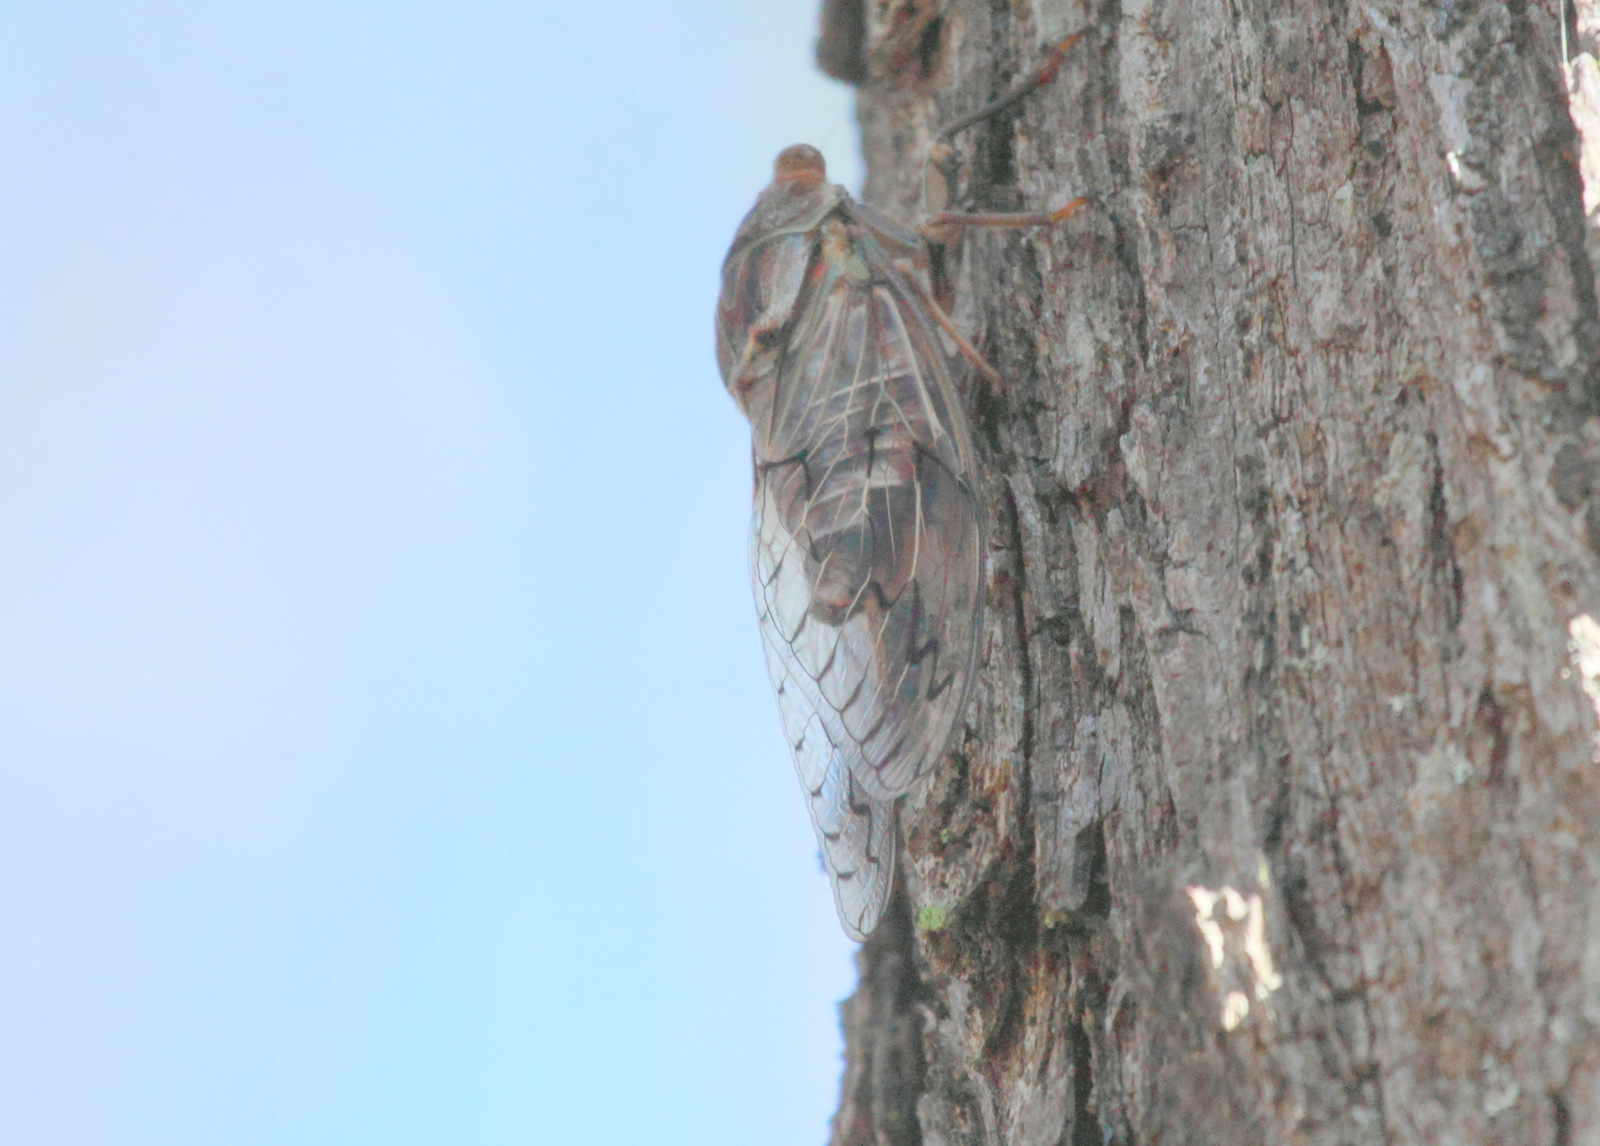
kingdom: Animalia
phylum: Arthropoda
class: Insecta
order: Hemiptera
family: Cicadidae
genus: Henicopsaltria
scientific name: Henicopsaltria eydouxii
